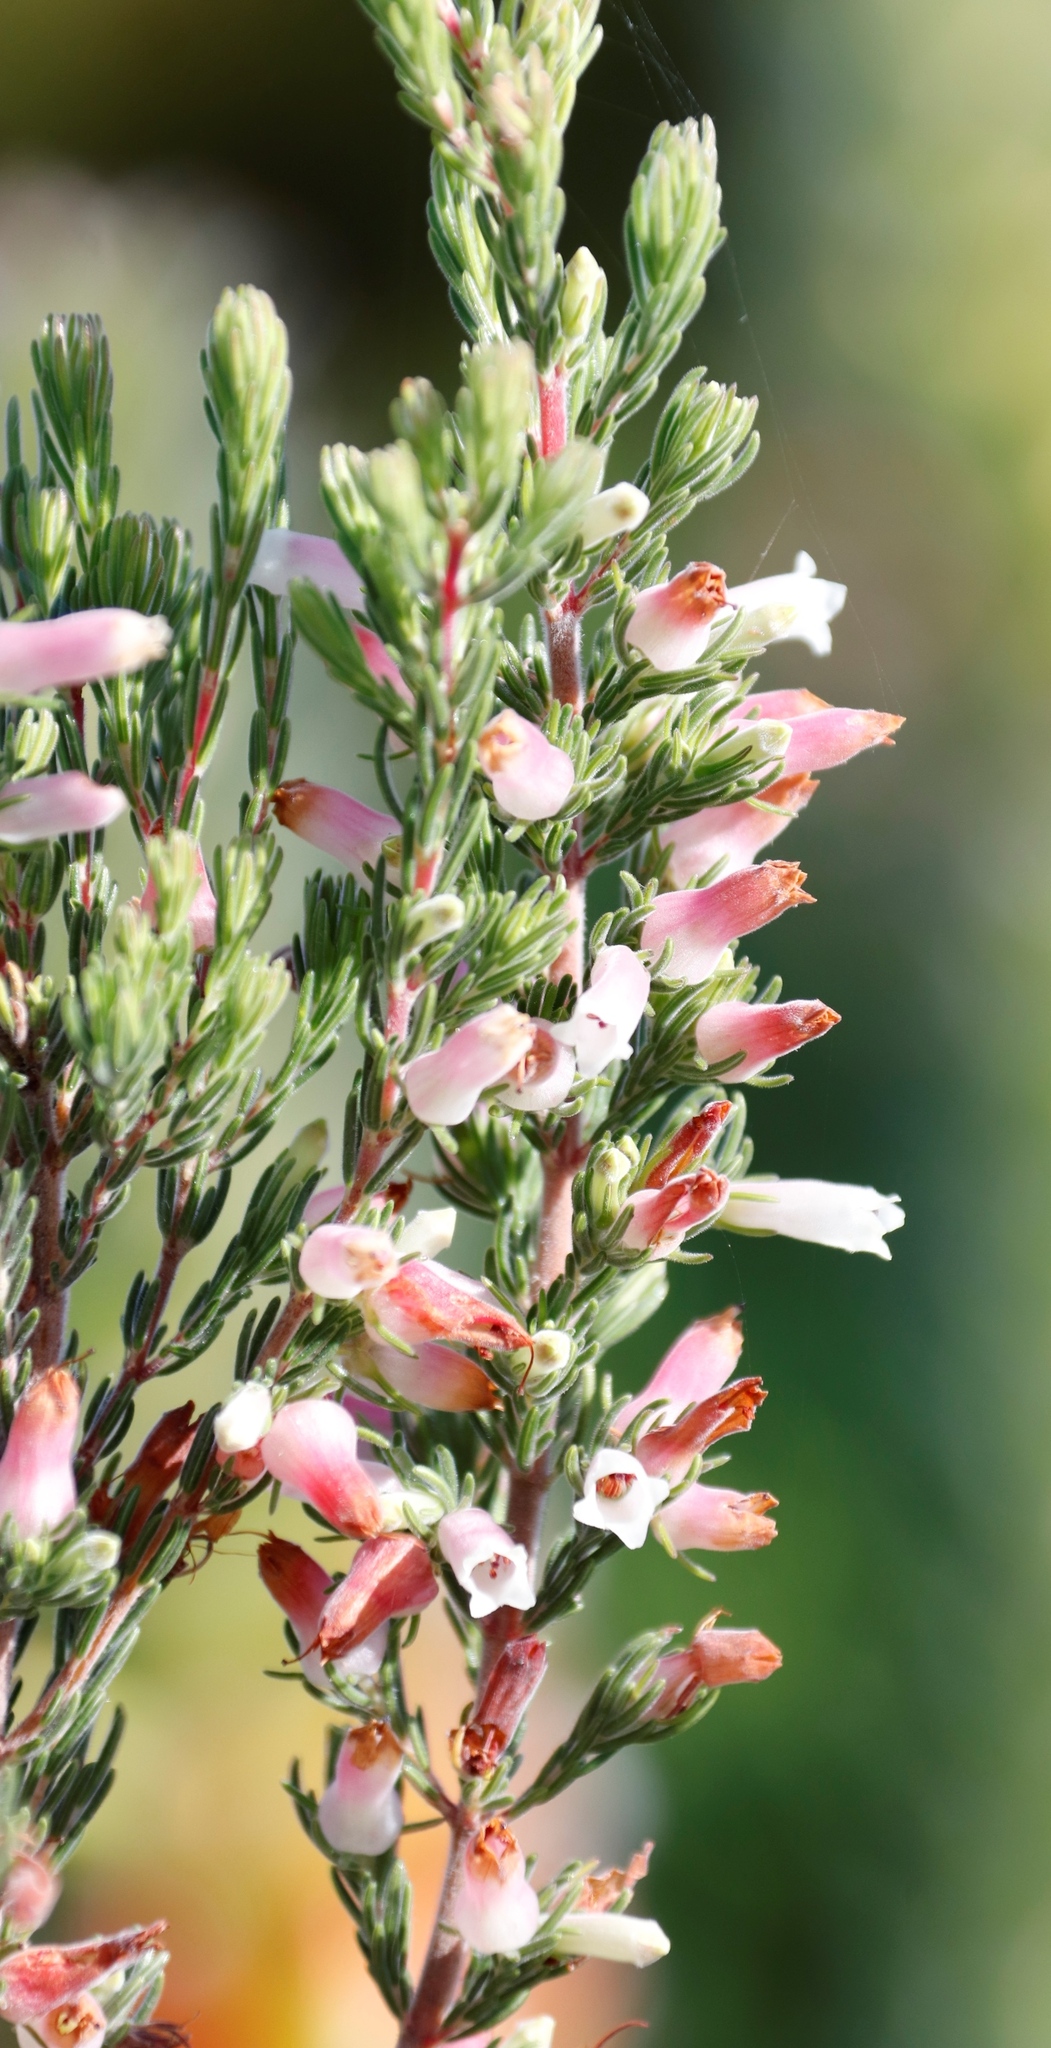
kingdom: Plantae
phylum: Tracheophyta
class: Magnoliopsida
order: Ericales
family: Ericaceae
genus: Erica
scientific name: Erica fontana
